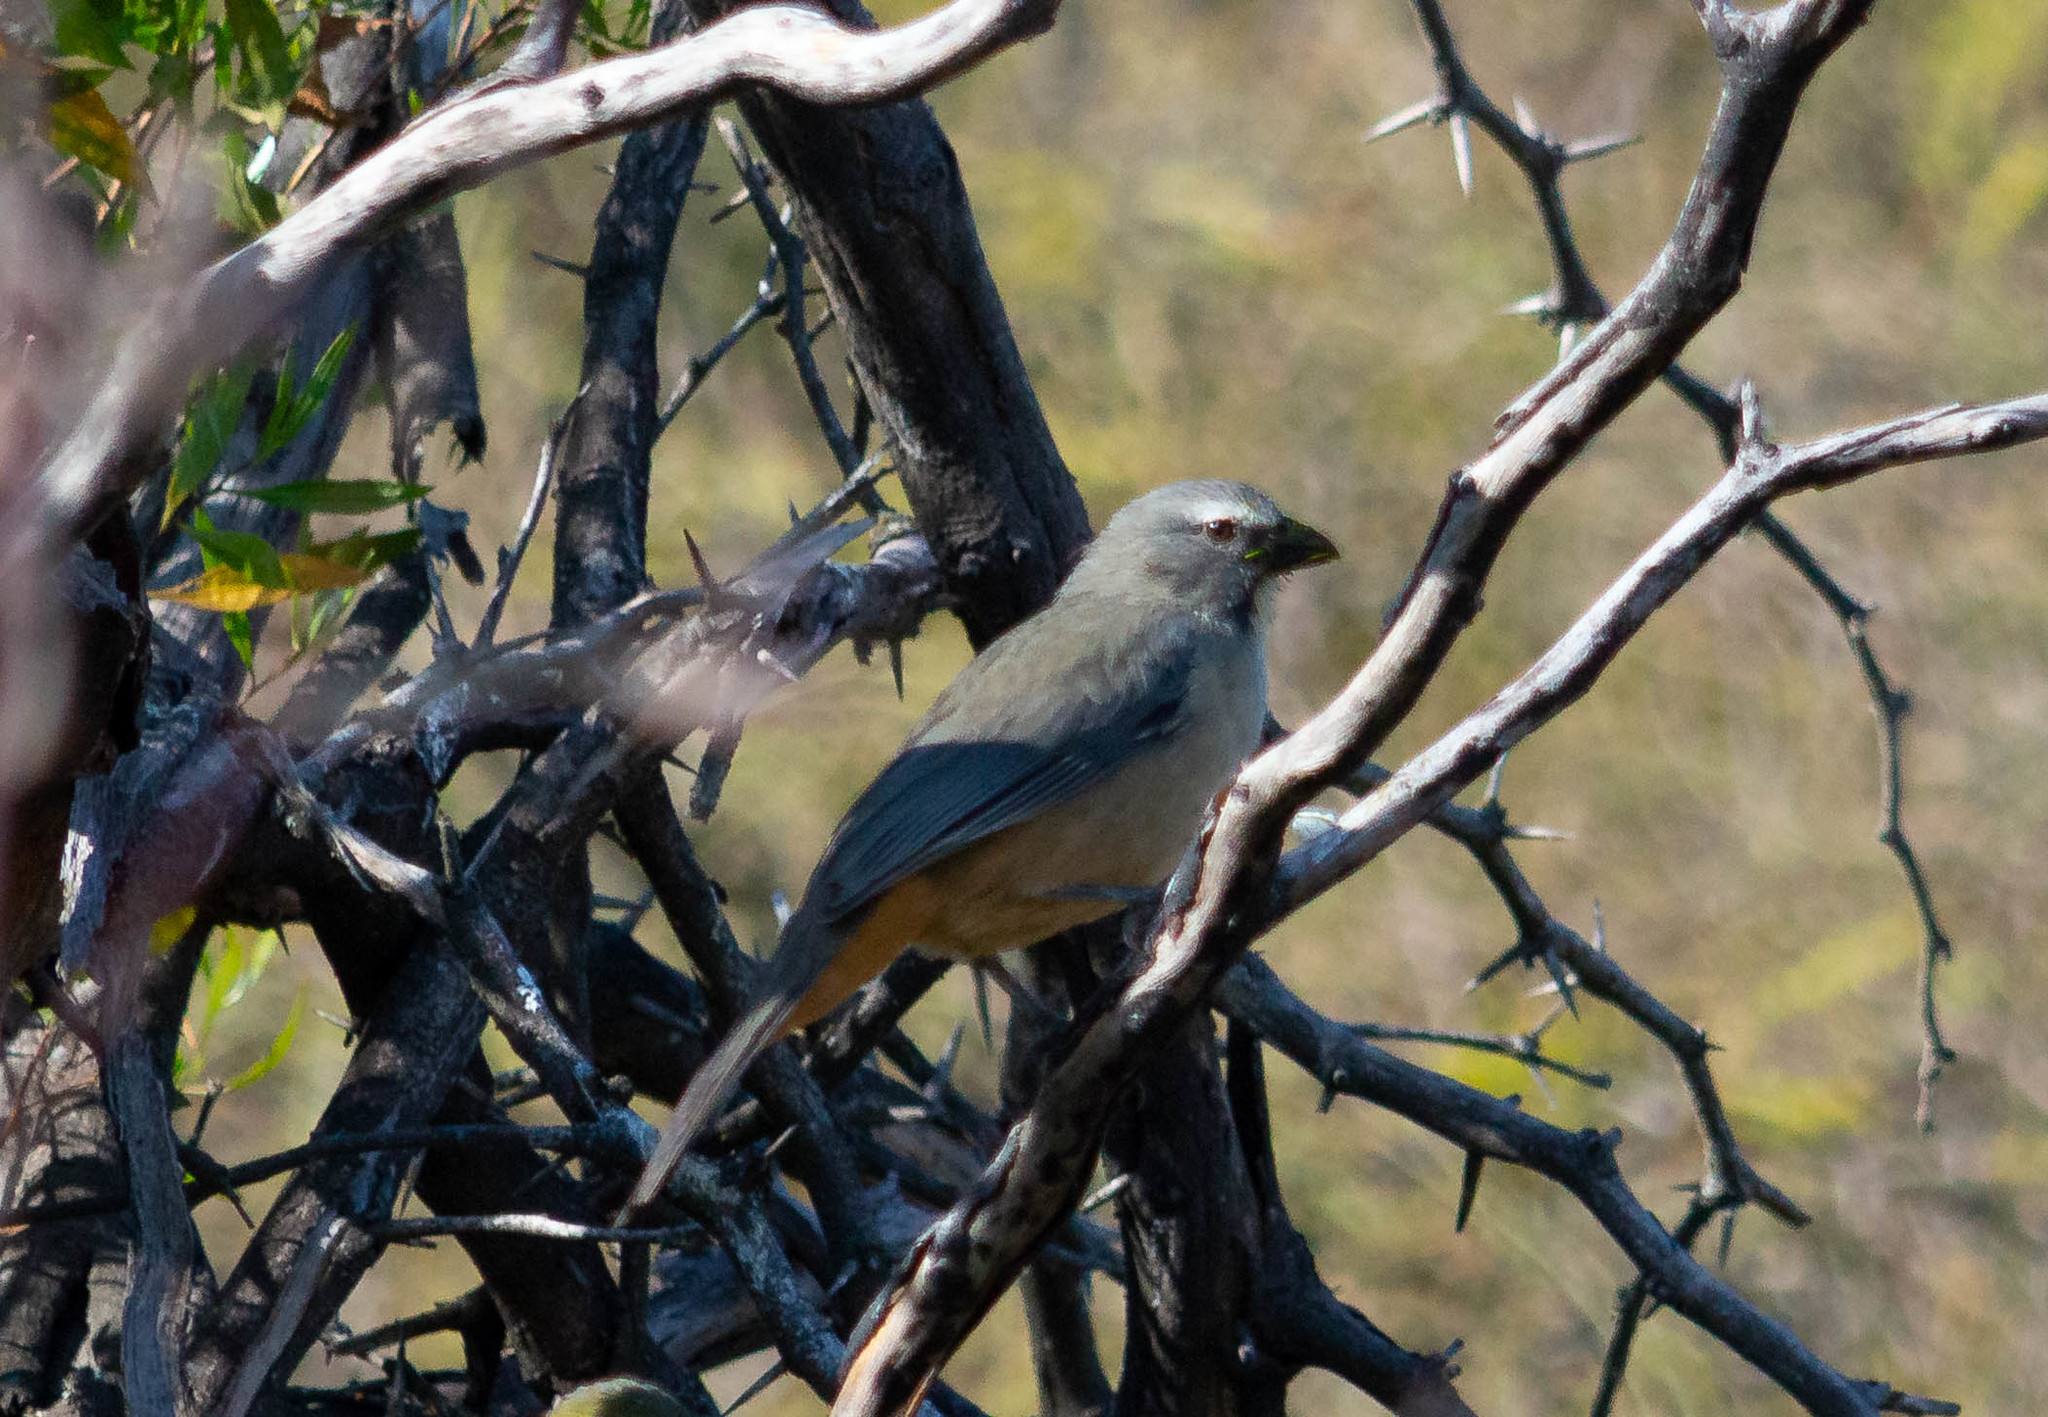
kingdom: Animalia
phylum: Chordata
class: Aves
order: Passeriformes
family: Thraupidae
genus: Saltator
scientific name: Saltator coerulescens
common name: Grayish saltator
